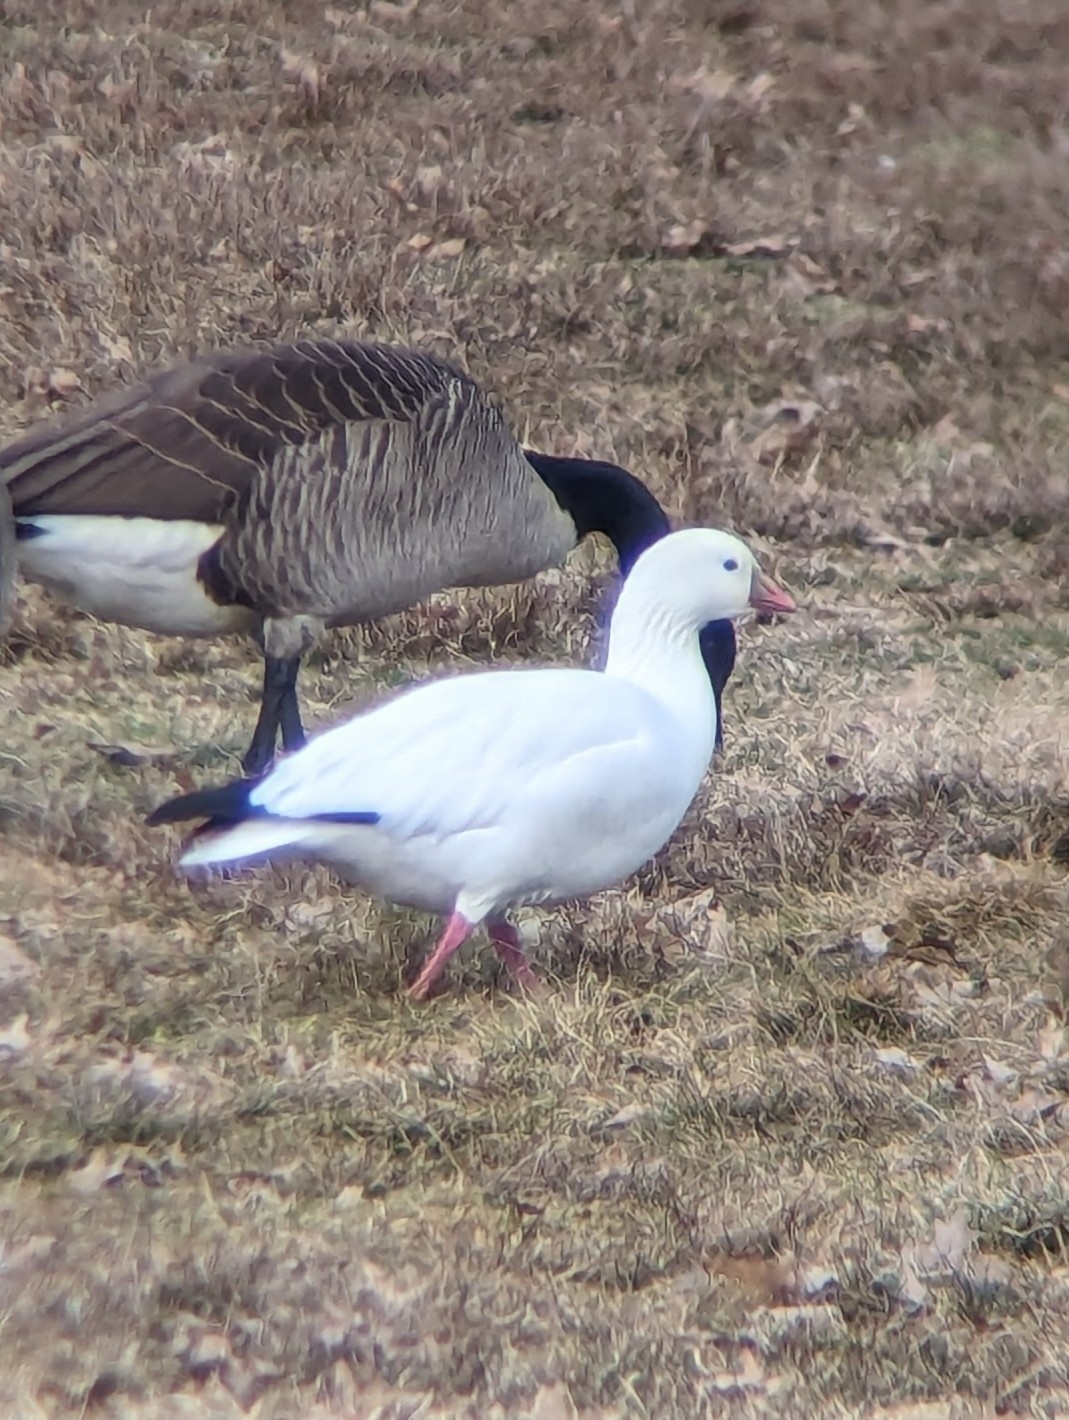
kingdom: Animalia
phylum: Chordata
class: Aves
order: Anseriformes
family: Anatidae
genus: Anser
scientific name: Anser rossii
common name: Ross's goose
